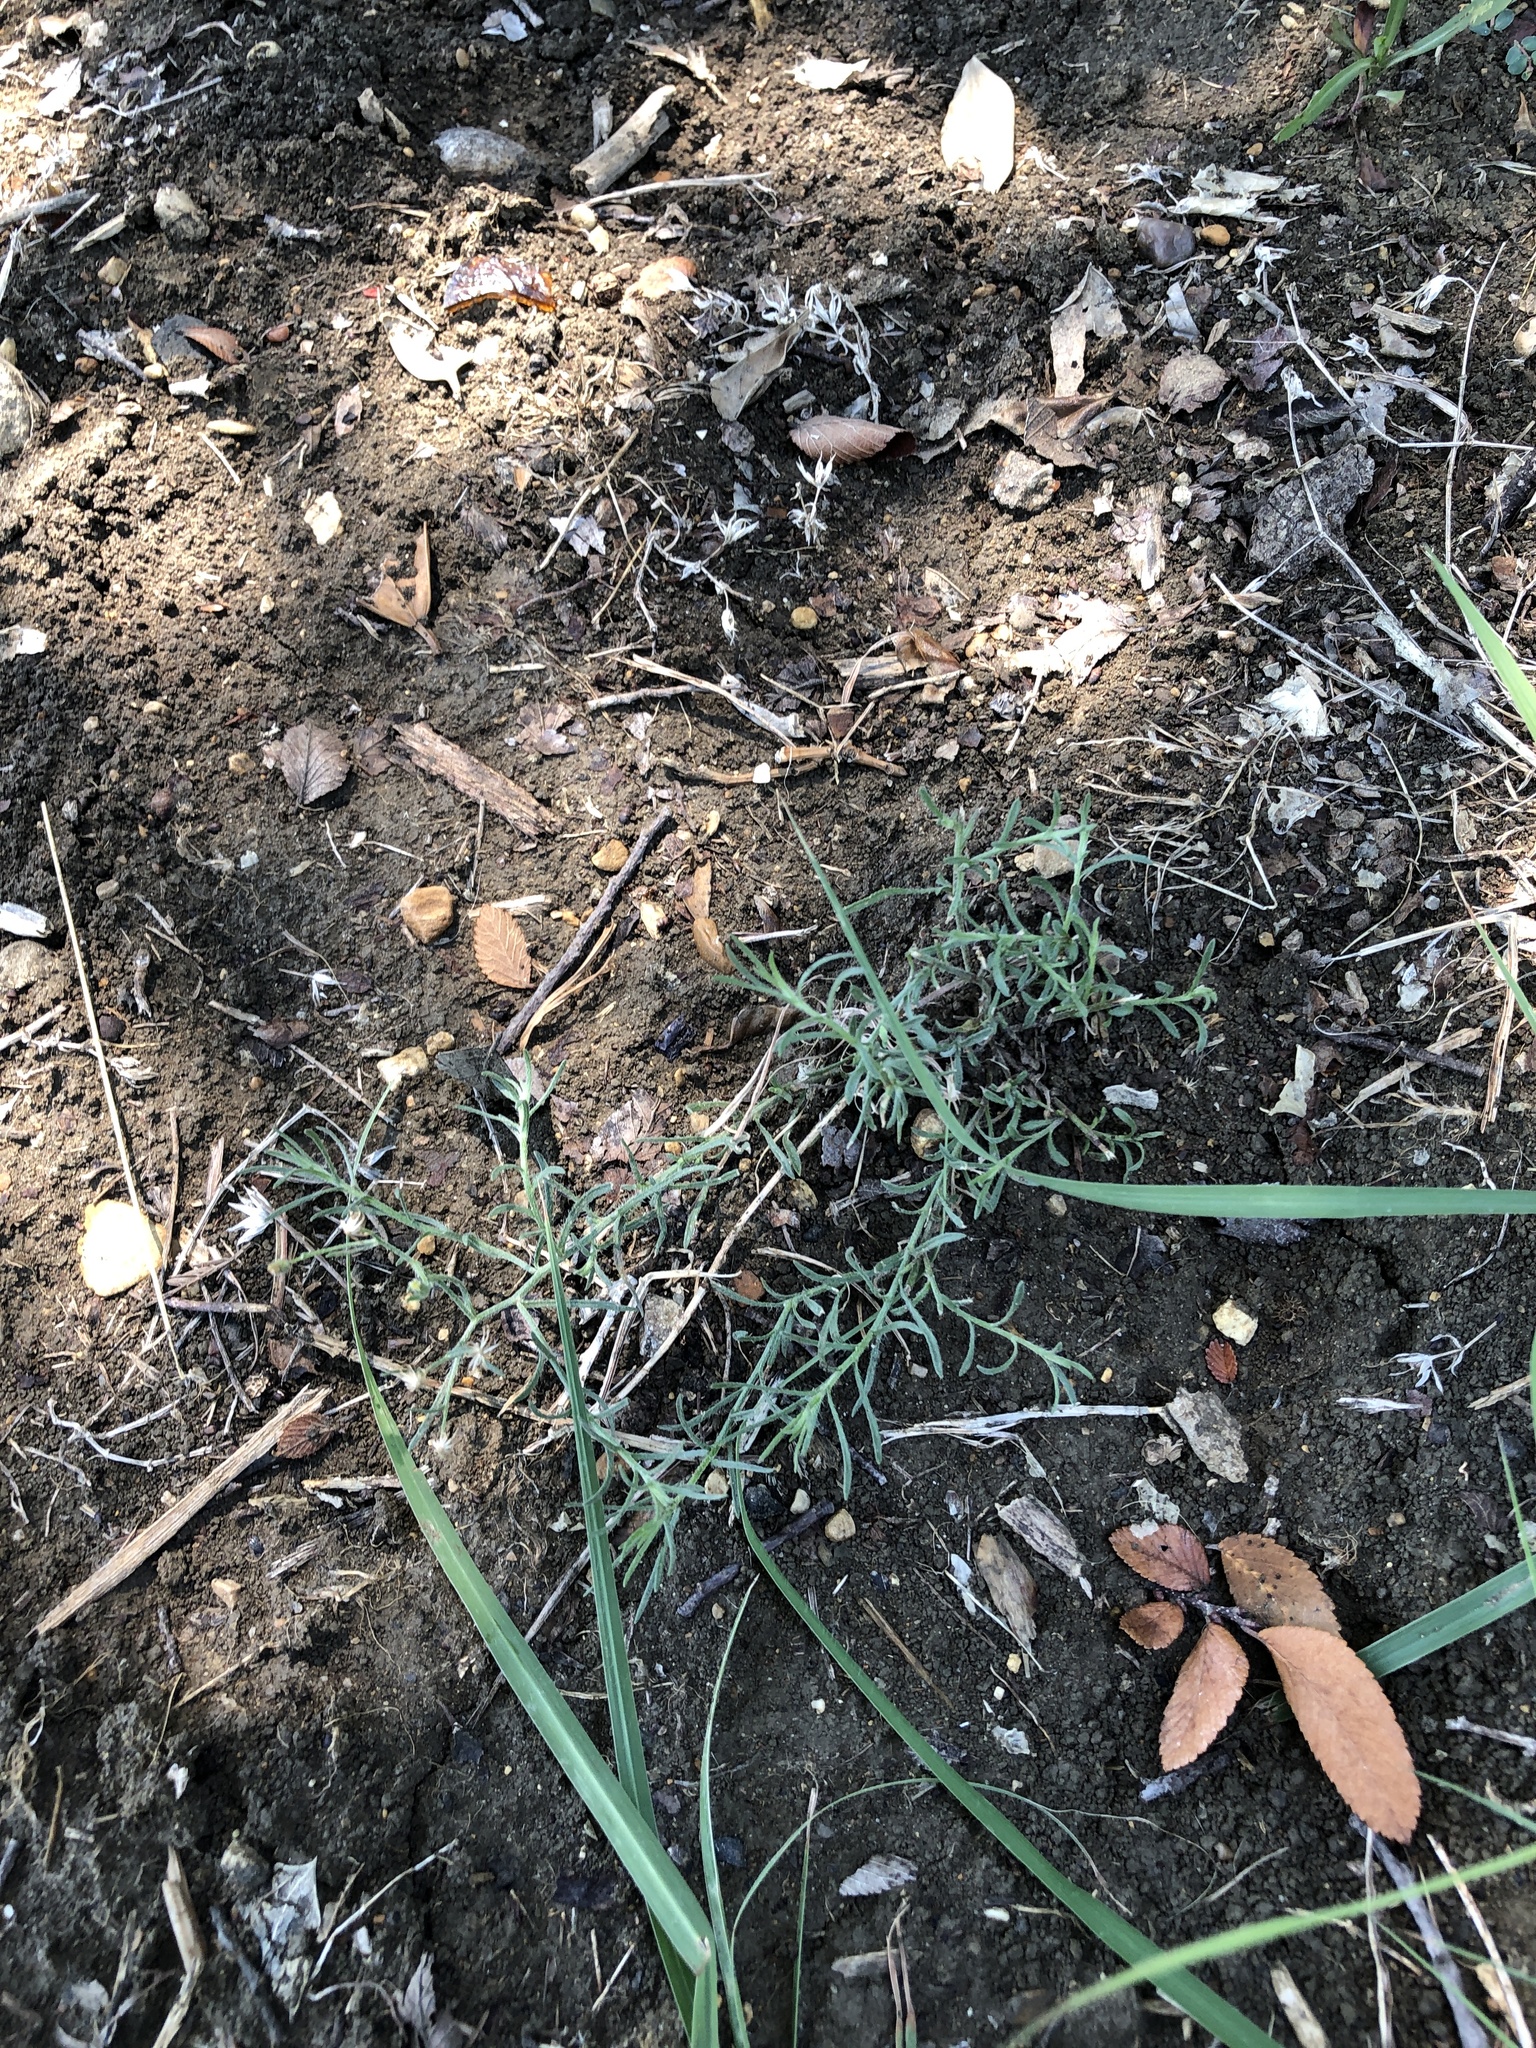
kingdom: Plantae
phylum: Tracheophyta
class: Magnoliopsida
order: Asterales
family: Asteraceae
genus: Erigeron
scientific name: Erigeron divaricatus
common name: Dwarf conyza
